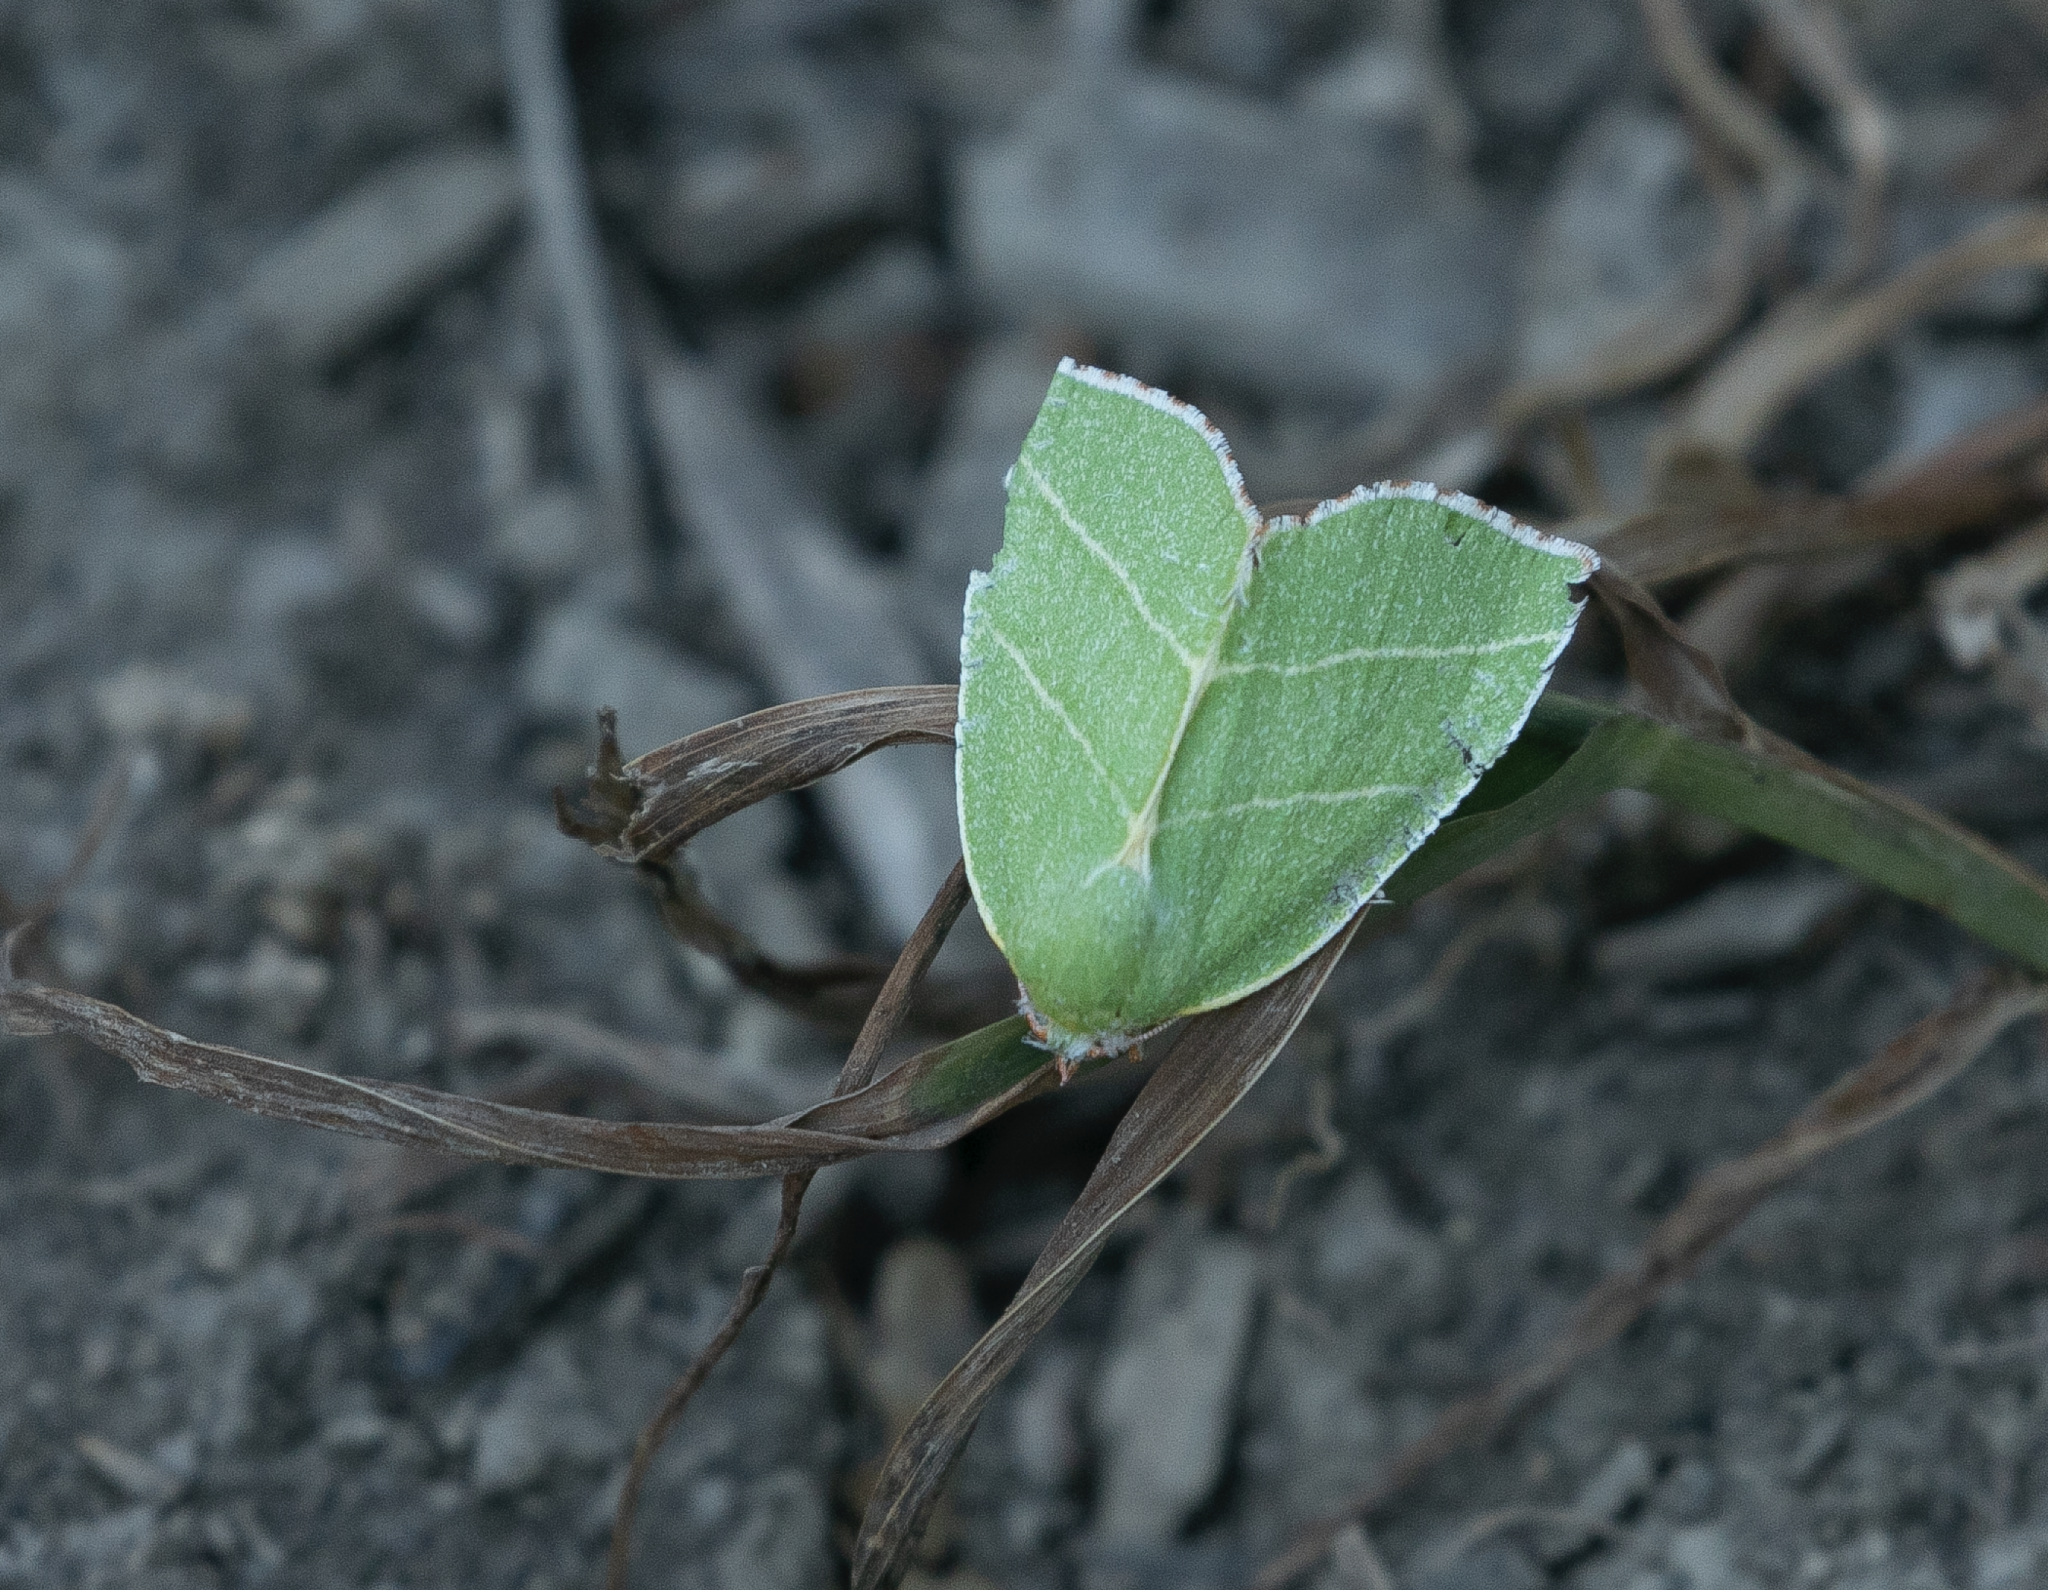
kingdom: Animalia
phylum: Arthropoda
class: Insecta
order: Lepidoptera
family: Nolidae
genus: Bena
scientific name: Bena bicolorana
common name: Scarce silver-lines
